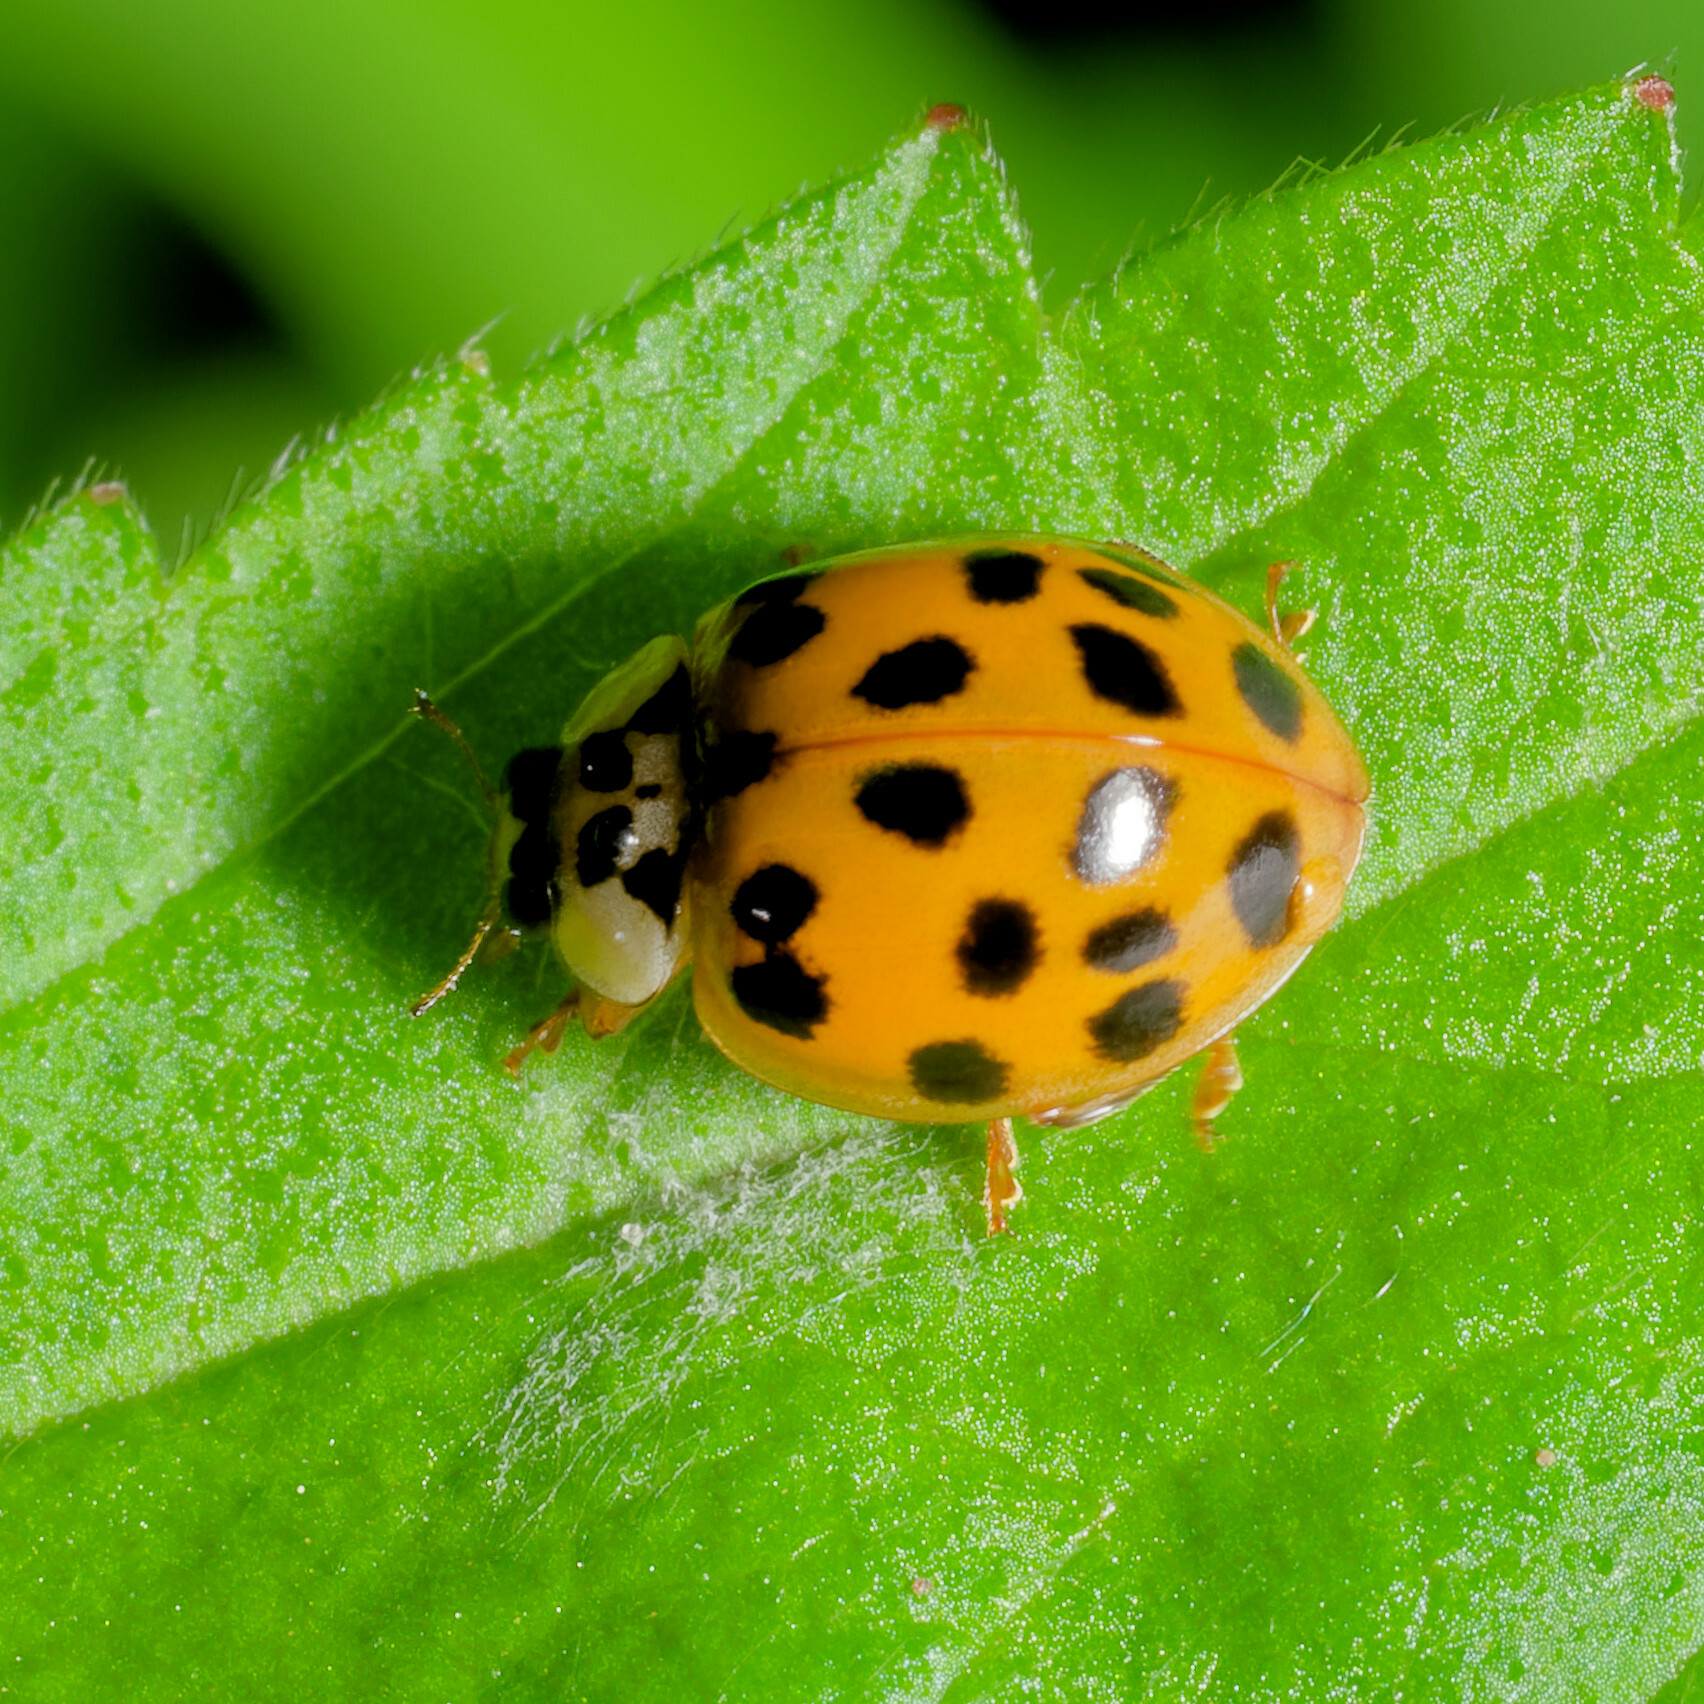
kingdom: Animalia
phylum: Arthropoda
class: Insecta
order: Coleoptera
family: Coccinellidae
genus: Harmonia
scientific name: Harmonia axyridis
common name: Harlequin ladybird
